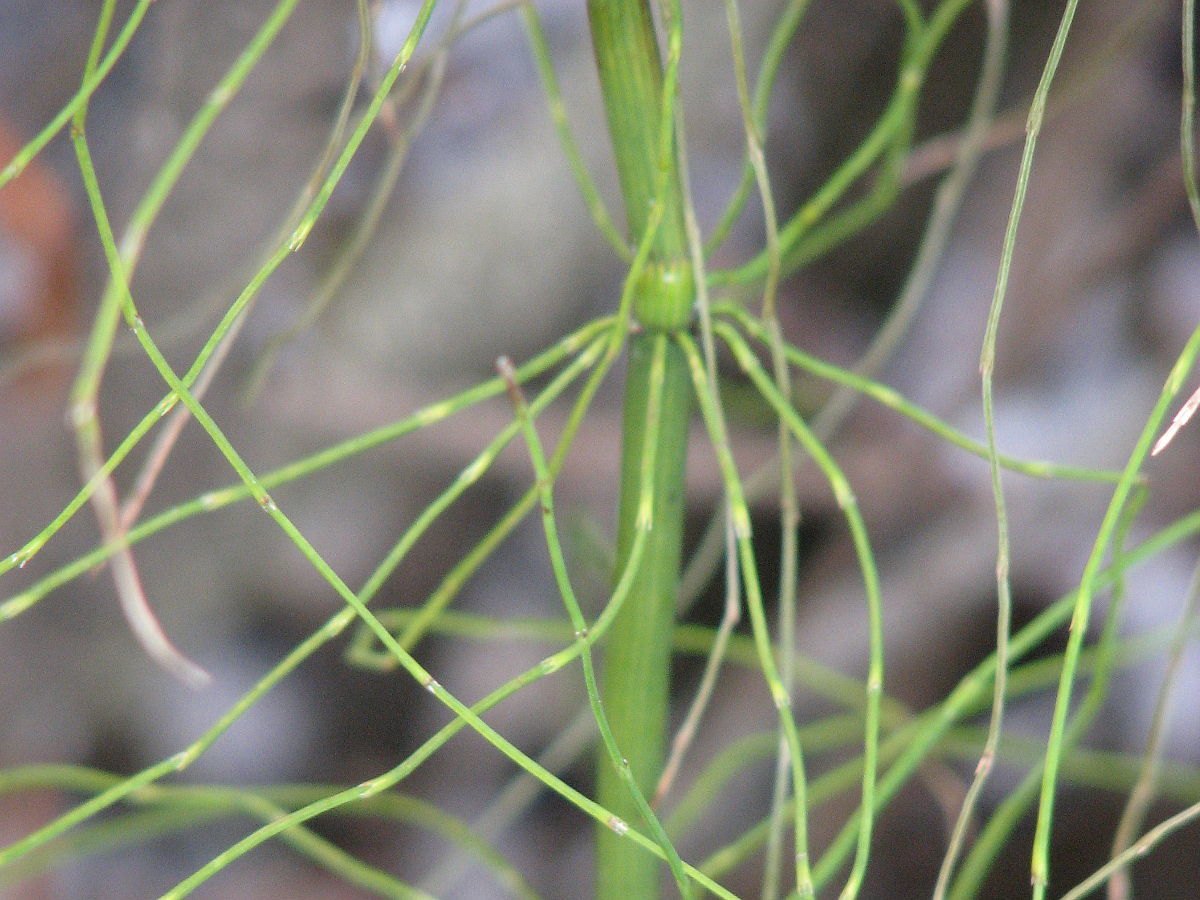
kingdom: Plantae
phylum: Tracheophyta
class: Polypodiopsida
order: Equisetales
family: Equisetaceae
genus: Equisetum
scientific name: Equisetum fluviatile
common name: Water horsetail
